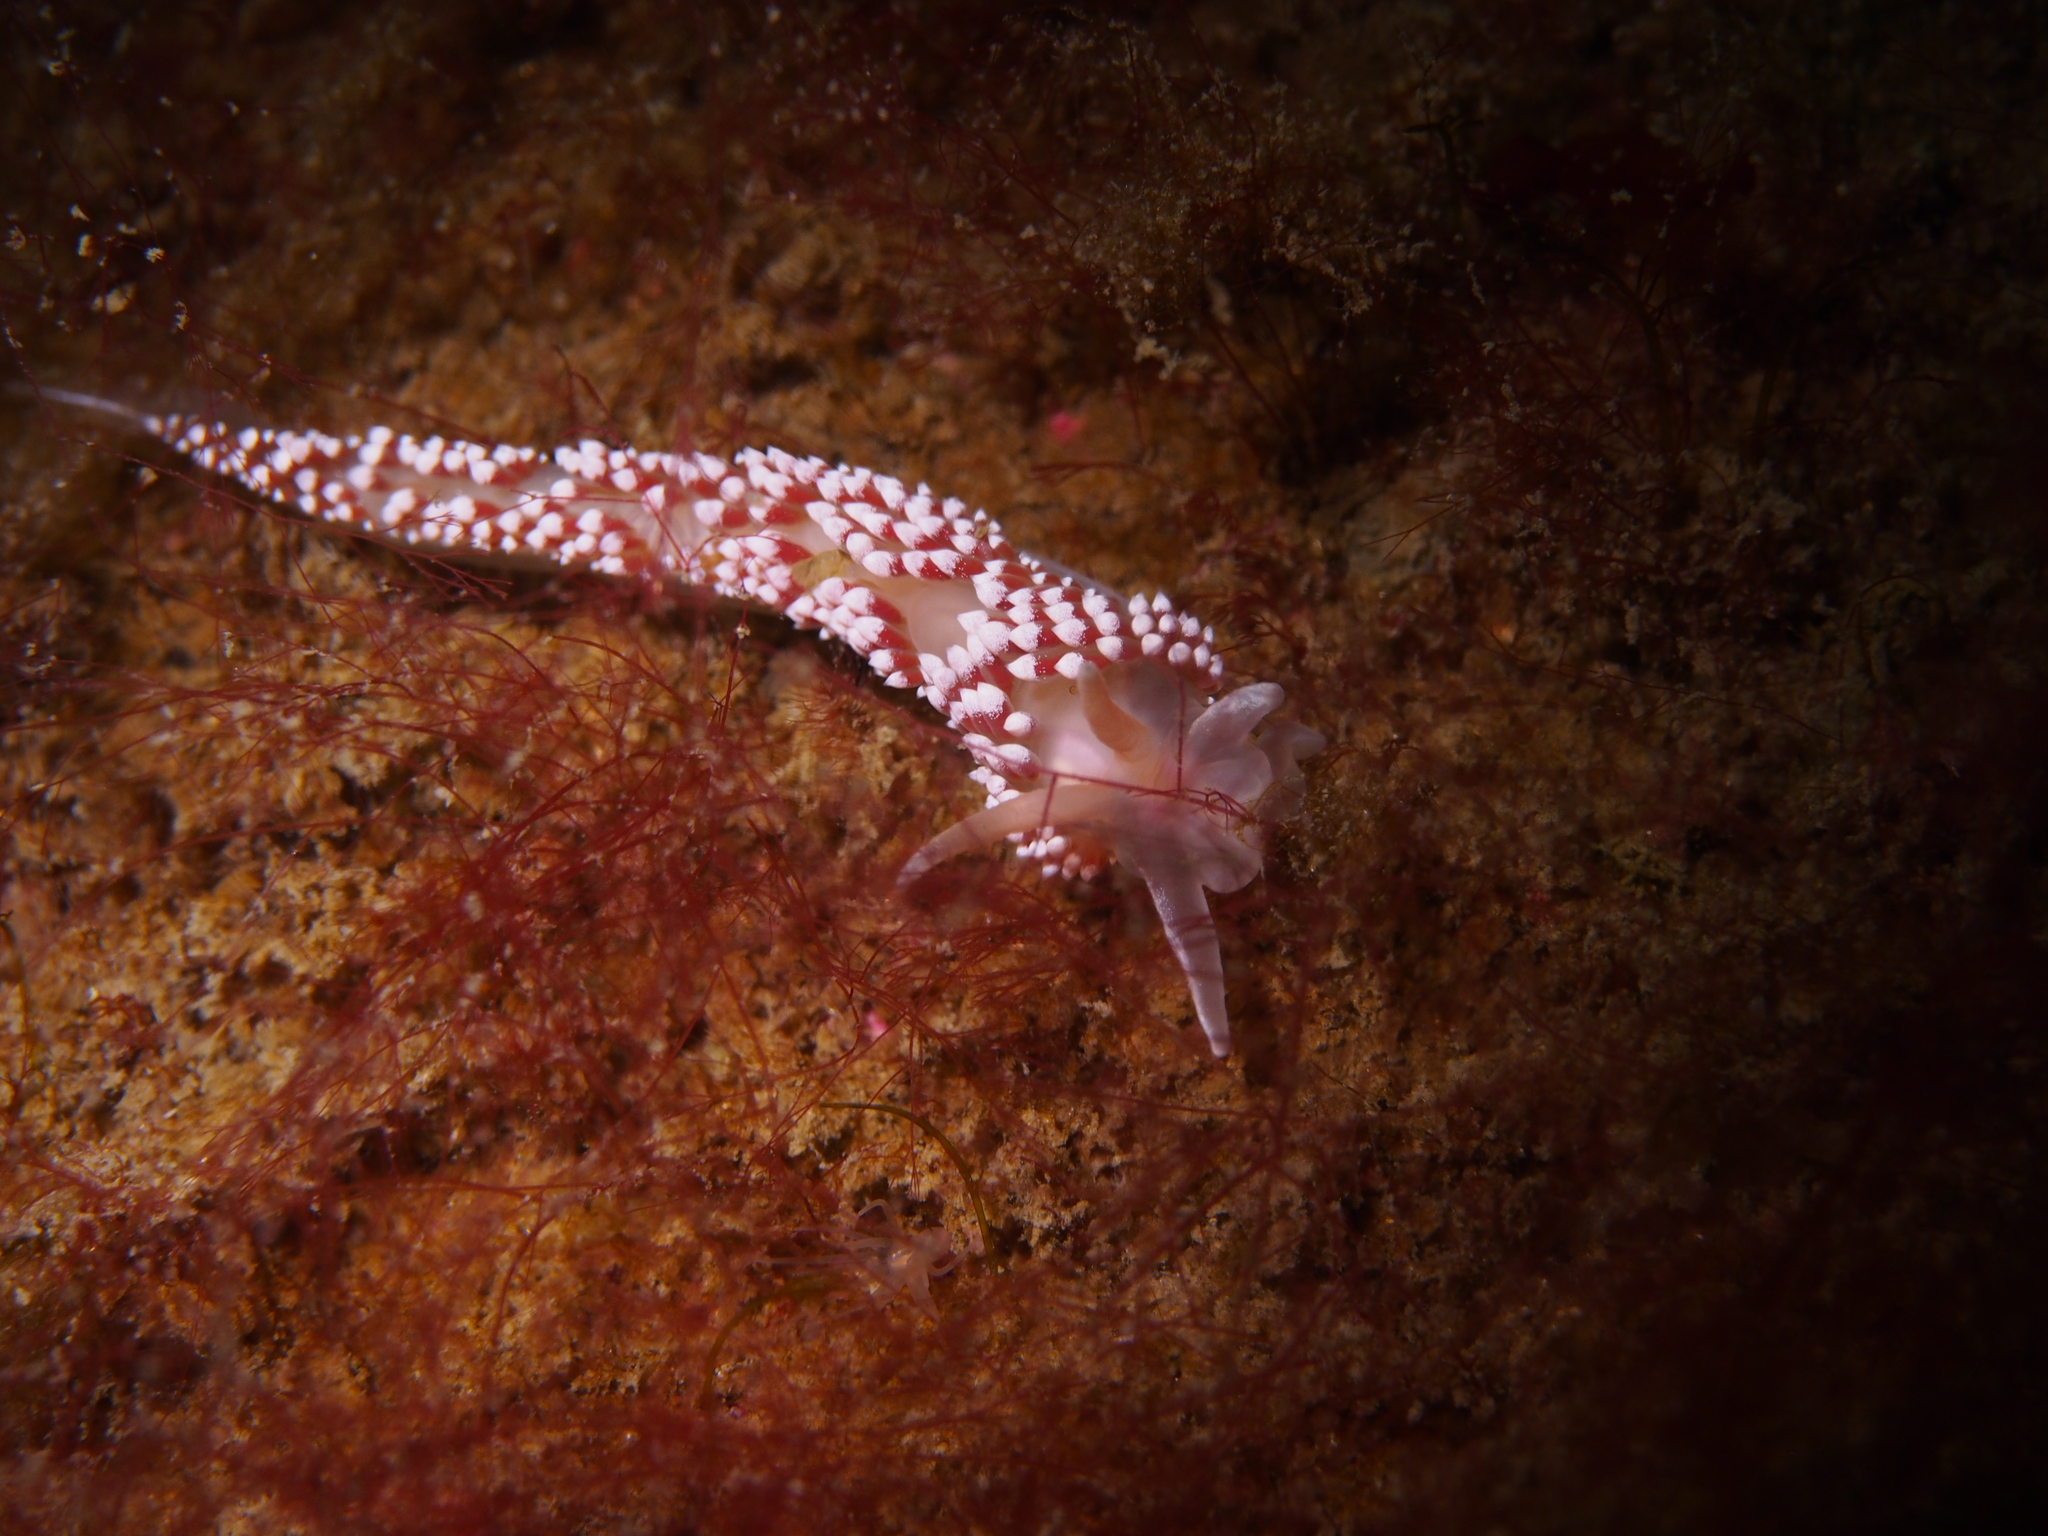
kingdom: Animalia
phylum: Mollusca
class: Gastropoda
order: Nudibranchia
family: Coryphellidae
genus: Coryphella
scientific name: Coryphella verrucosa
